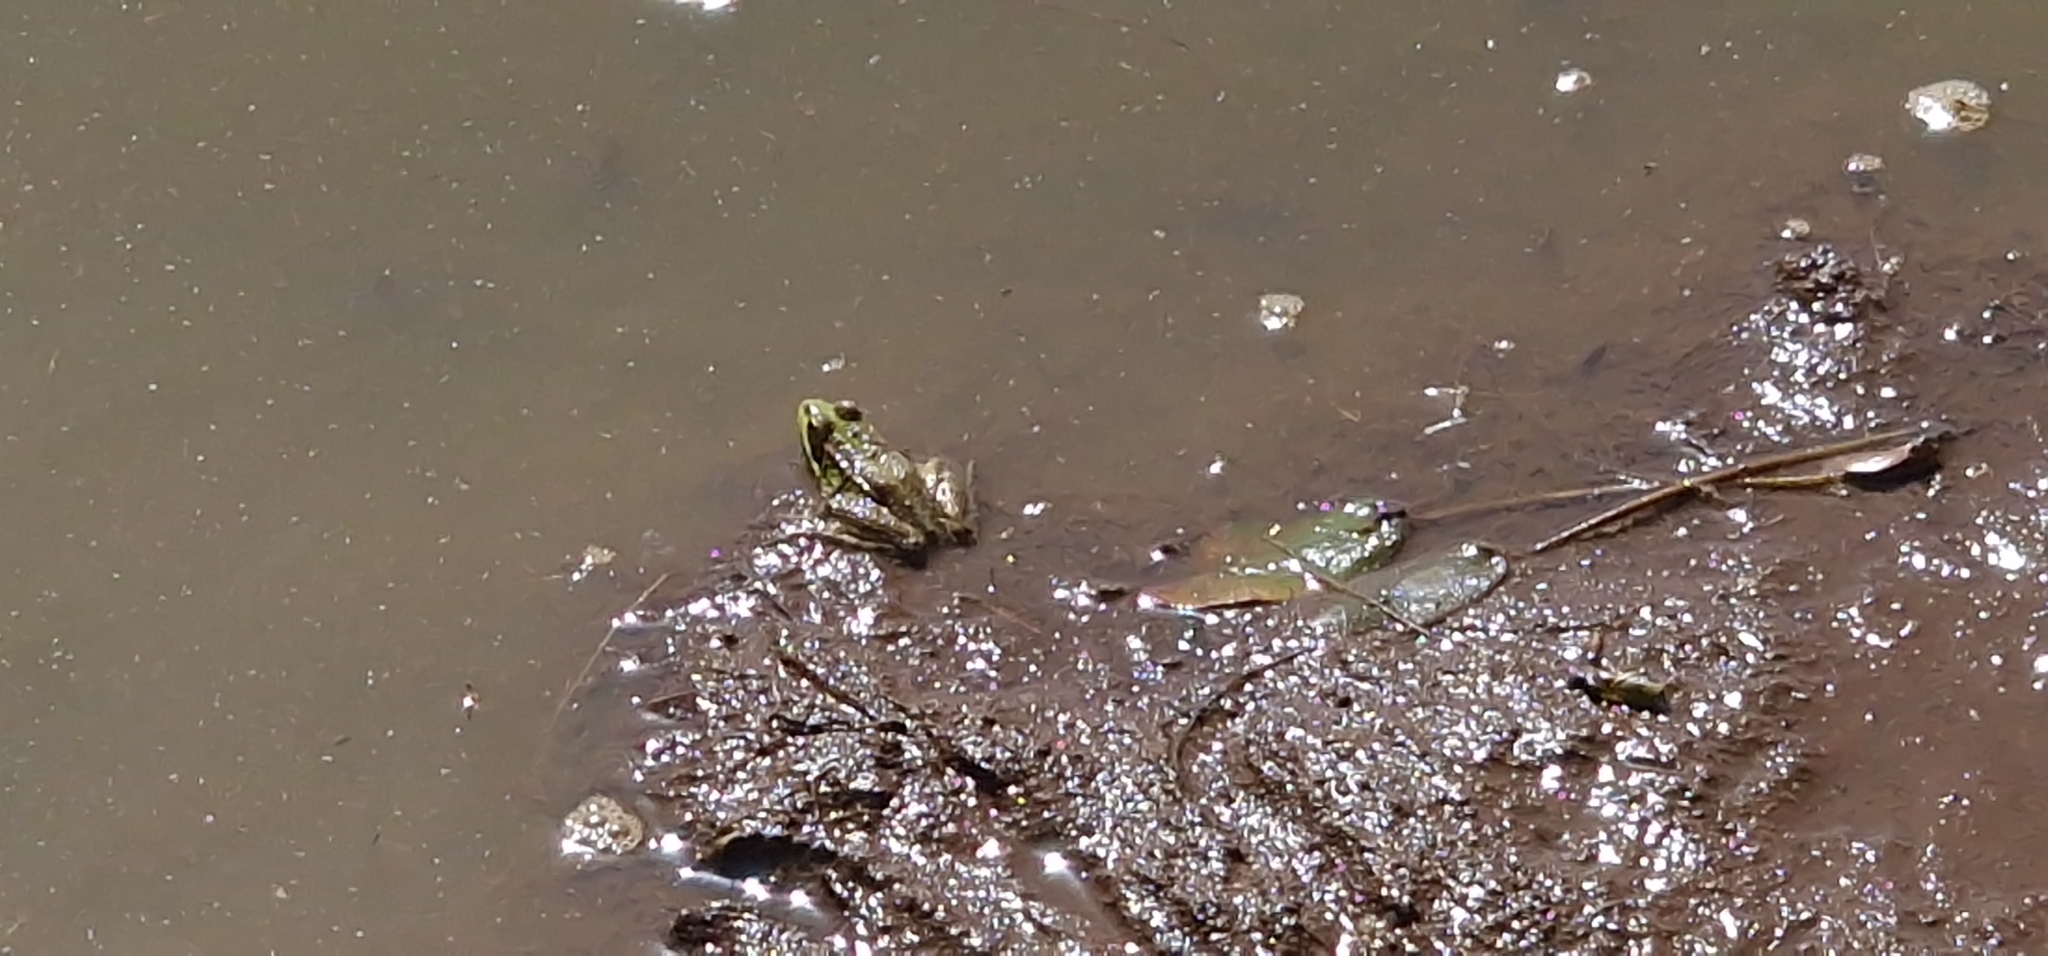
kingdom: Animalia
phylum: Chordata
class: Amphibia
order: Anura
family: Ranidae
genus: Pelophylax
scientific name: Pelophylax perezi
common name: Perez's frog
